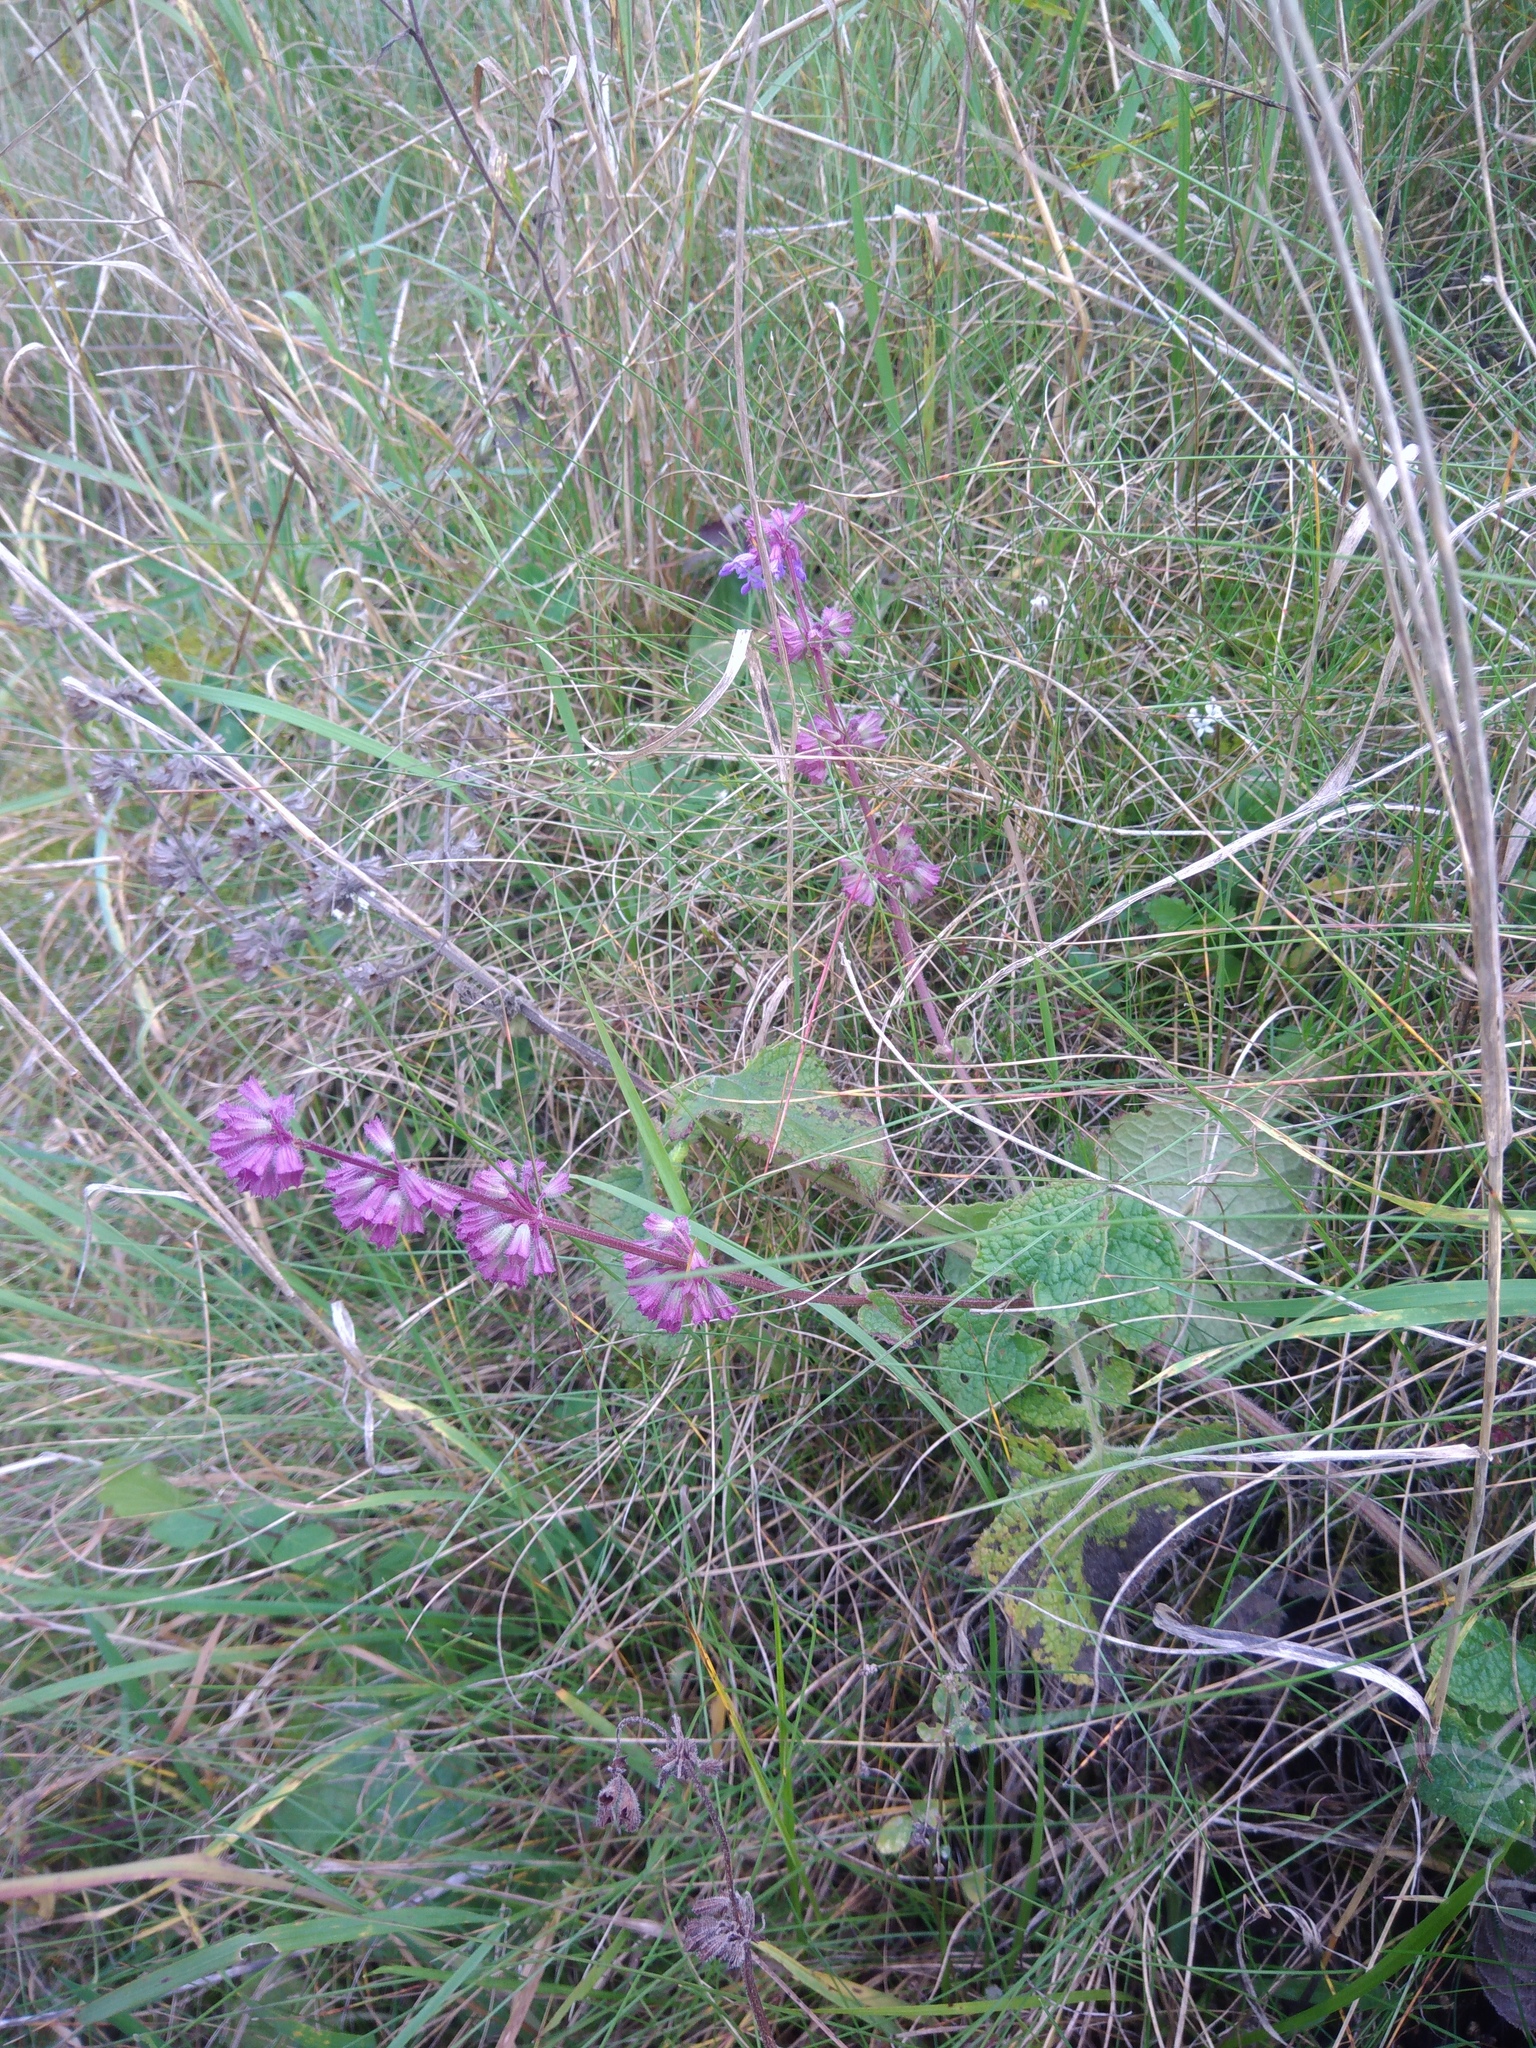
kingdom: Plantae
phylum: Tracheophyta
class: Magnoliopsida
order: Lamiales
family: Lamiaceae
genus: Salvia
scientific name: Salvia verticillata
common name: Whorled clary
